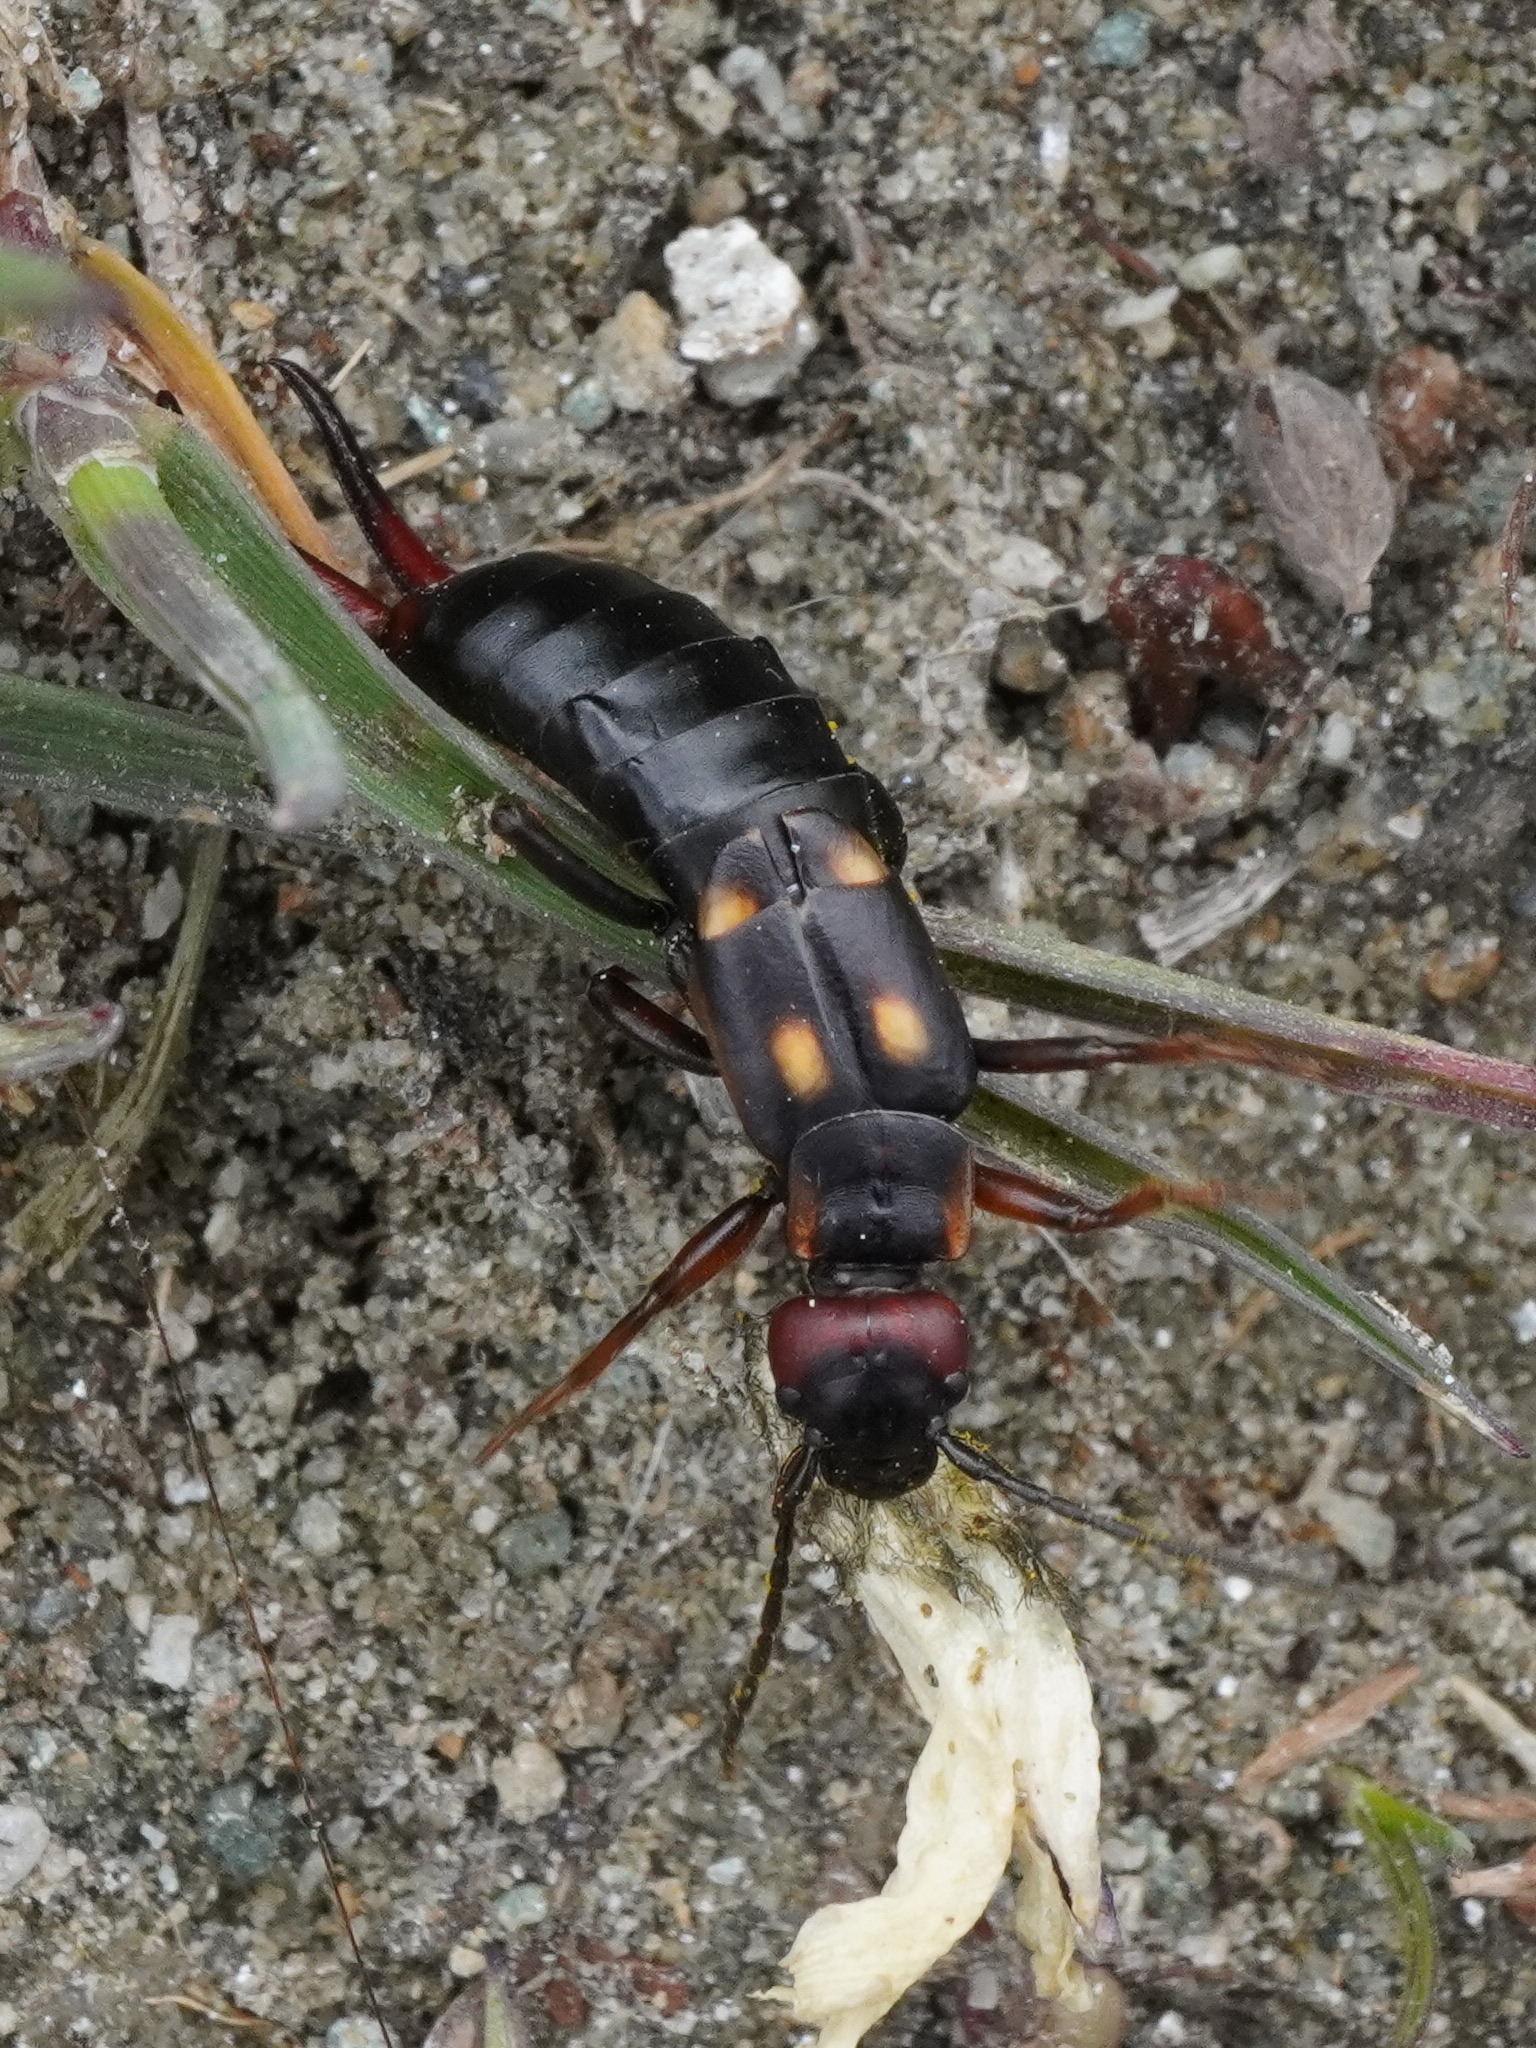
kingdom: Animalia
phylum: Arthropoda
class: Insecta
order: Dermaptera
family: Forficulidae
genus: Anechura
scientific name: Anechura bipunctata
